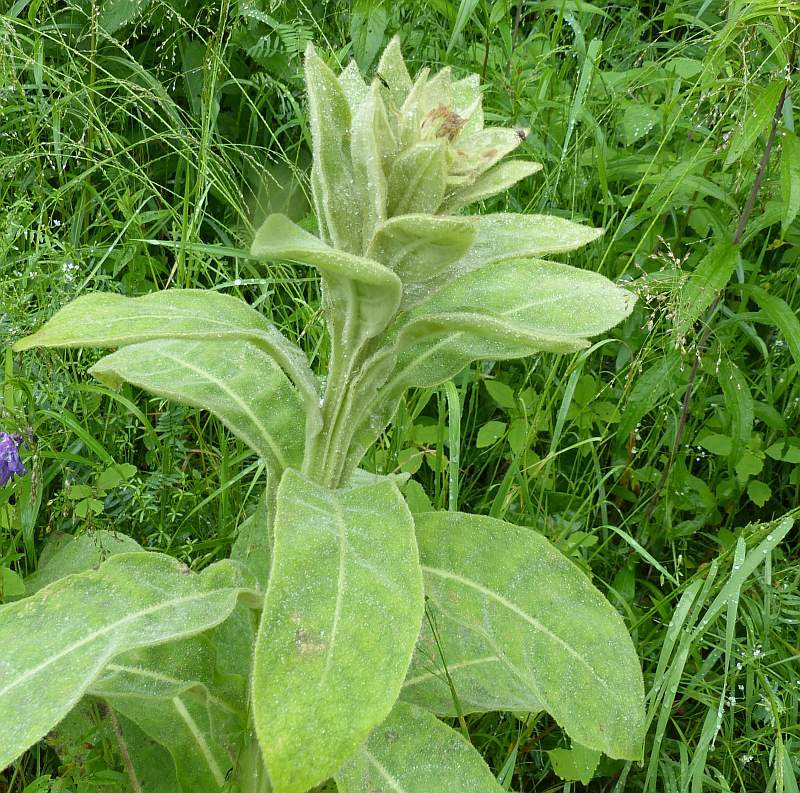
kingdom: Plantae
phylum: Tracheophyta
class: Magnoliopsida
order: Lamiales
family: Scrophulariaceae
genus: Verbascum
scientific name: Verbascum thapsus
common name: Common mullein
